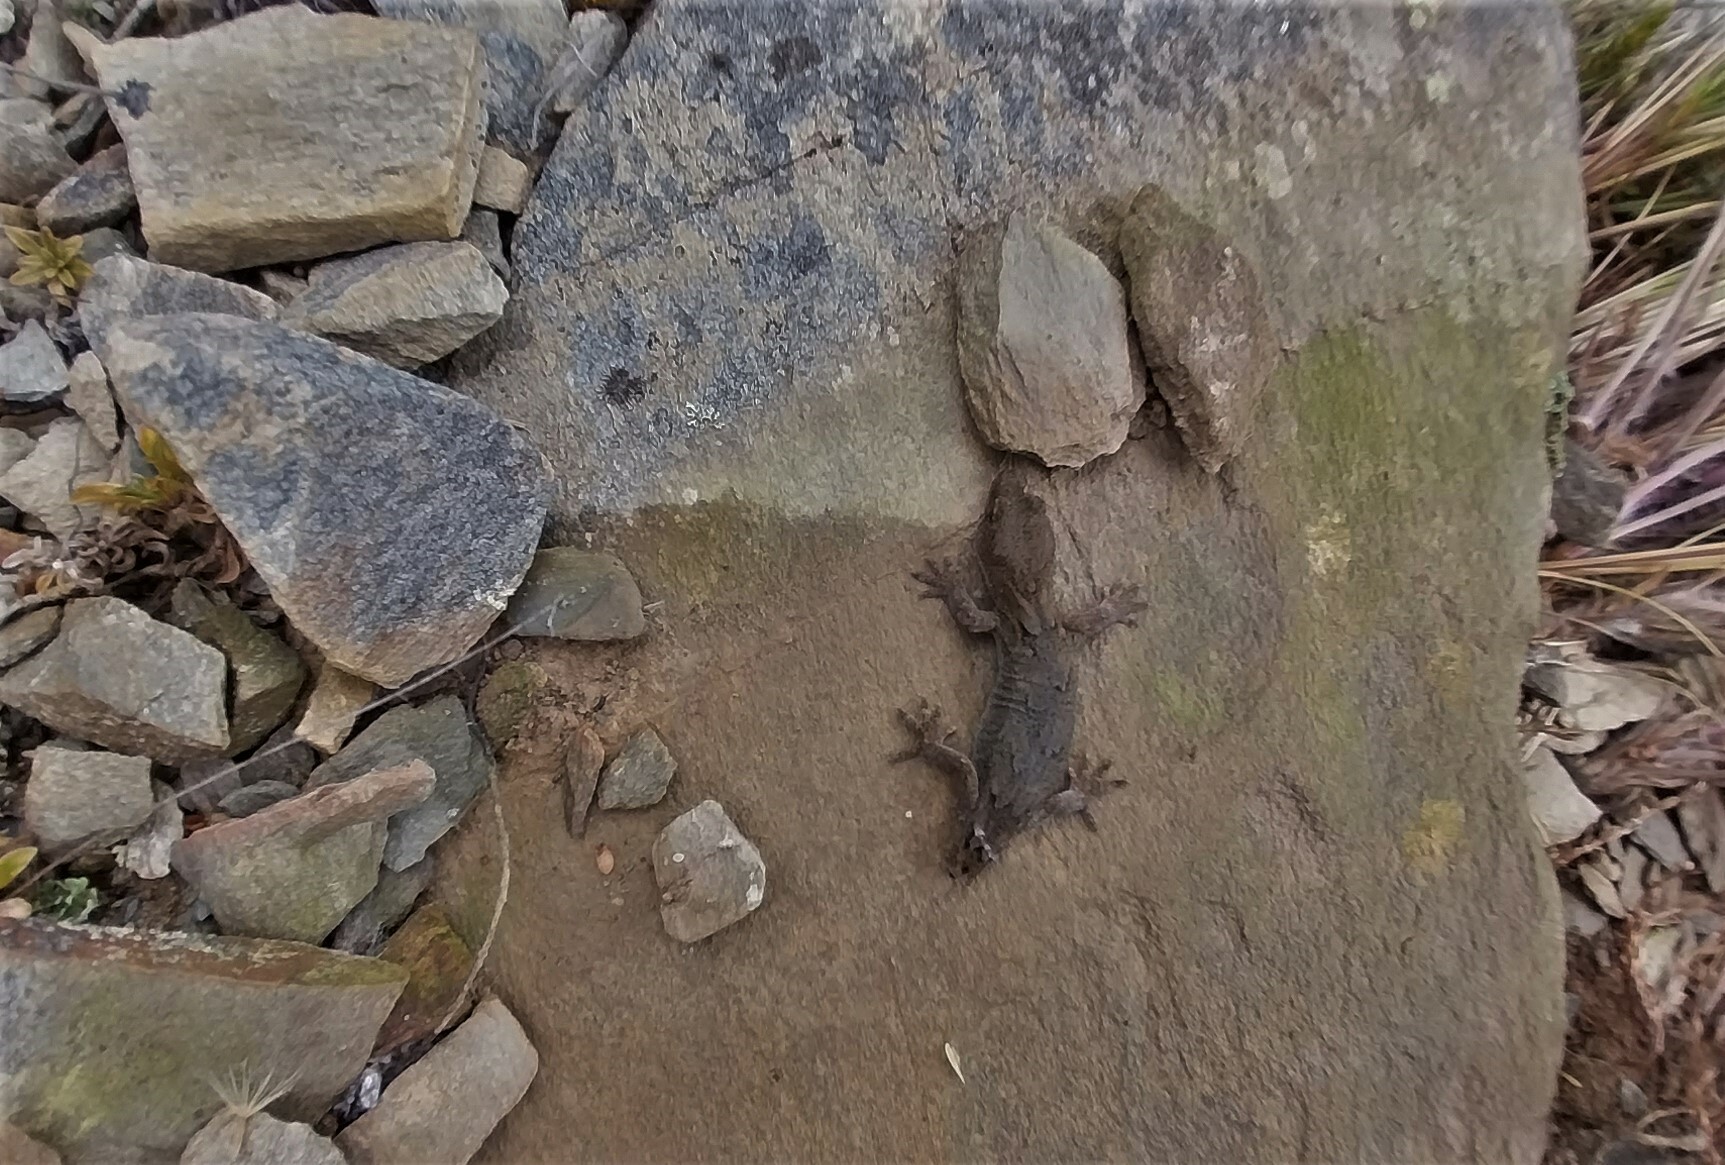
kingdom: Animalia
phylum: Chordata
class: Squamata
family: Diplodactylidae
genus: Woodworthia
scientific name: Woodworthia
